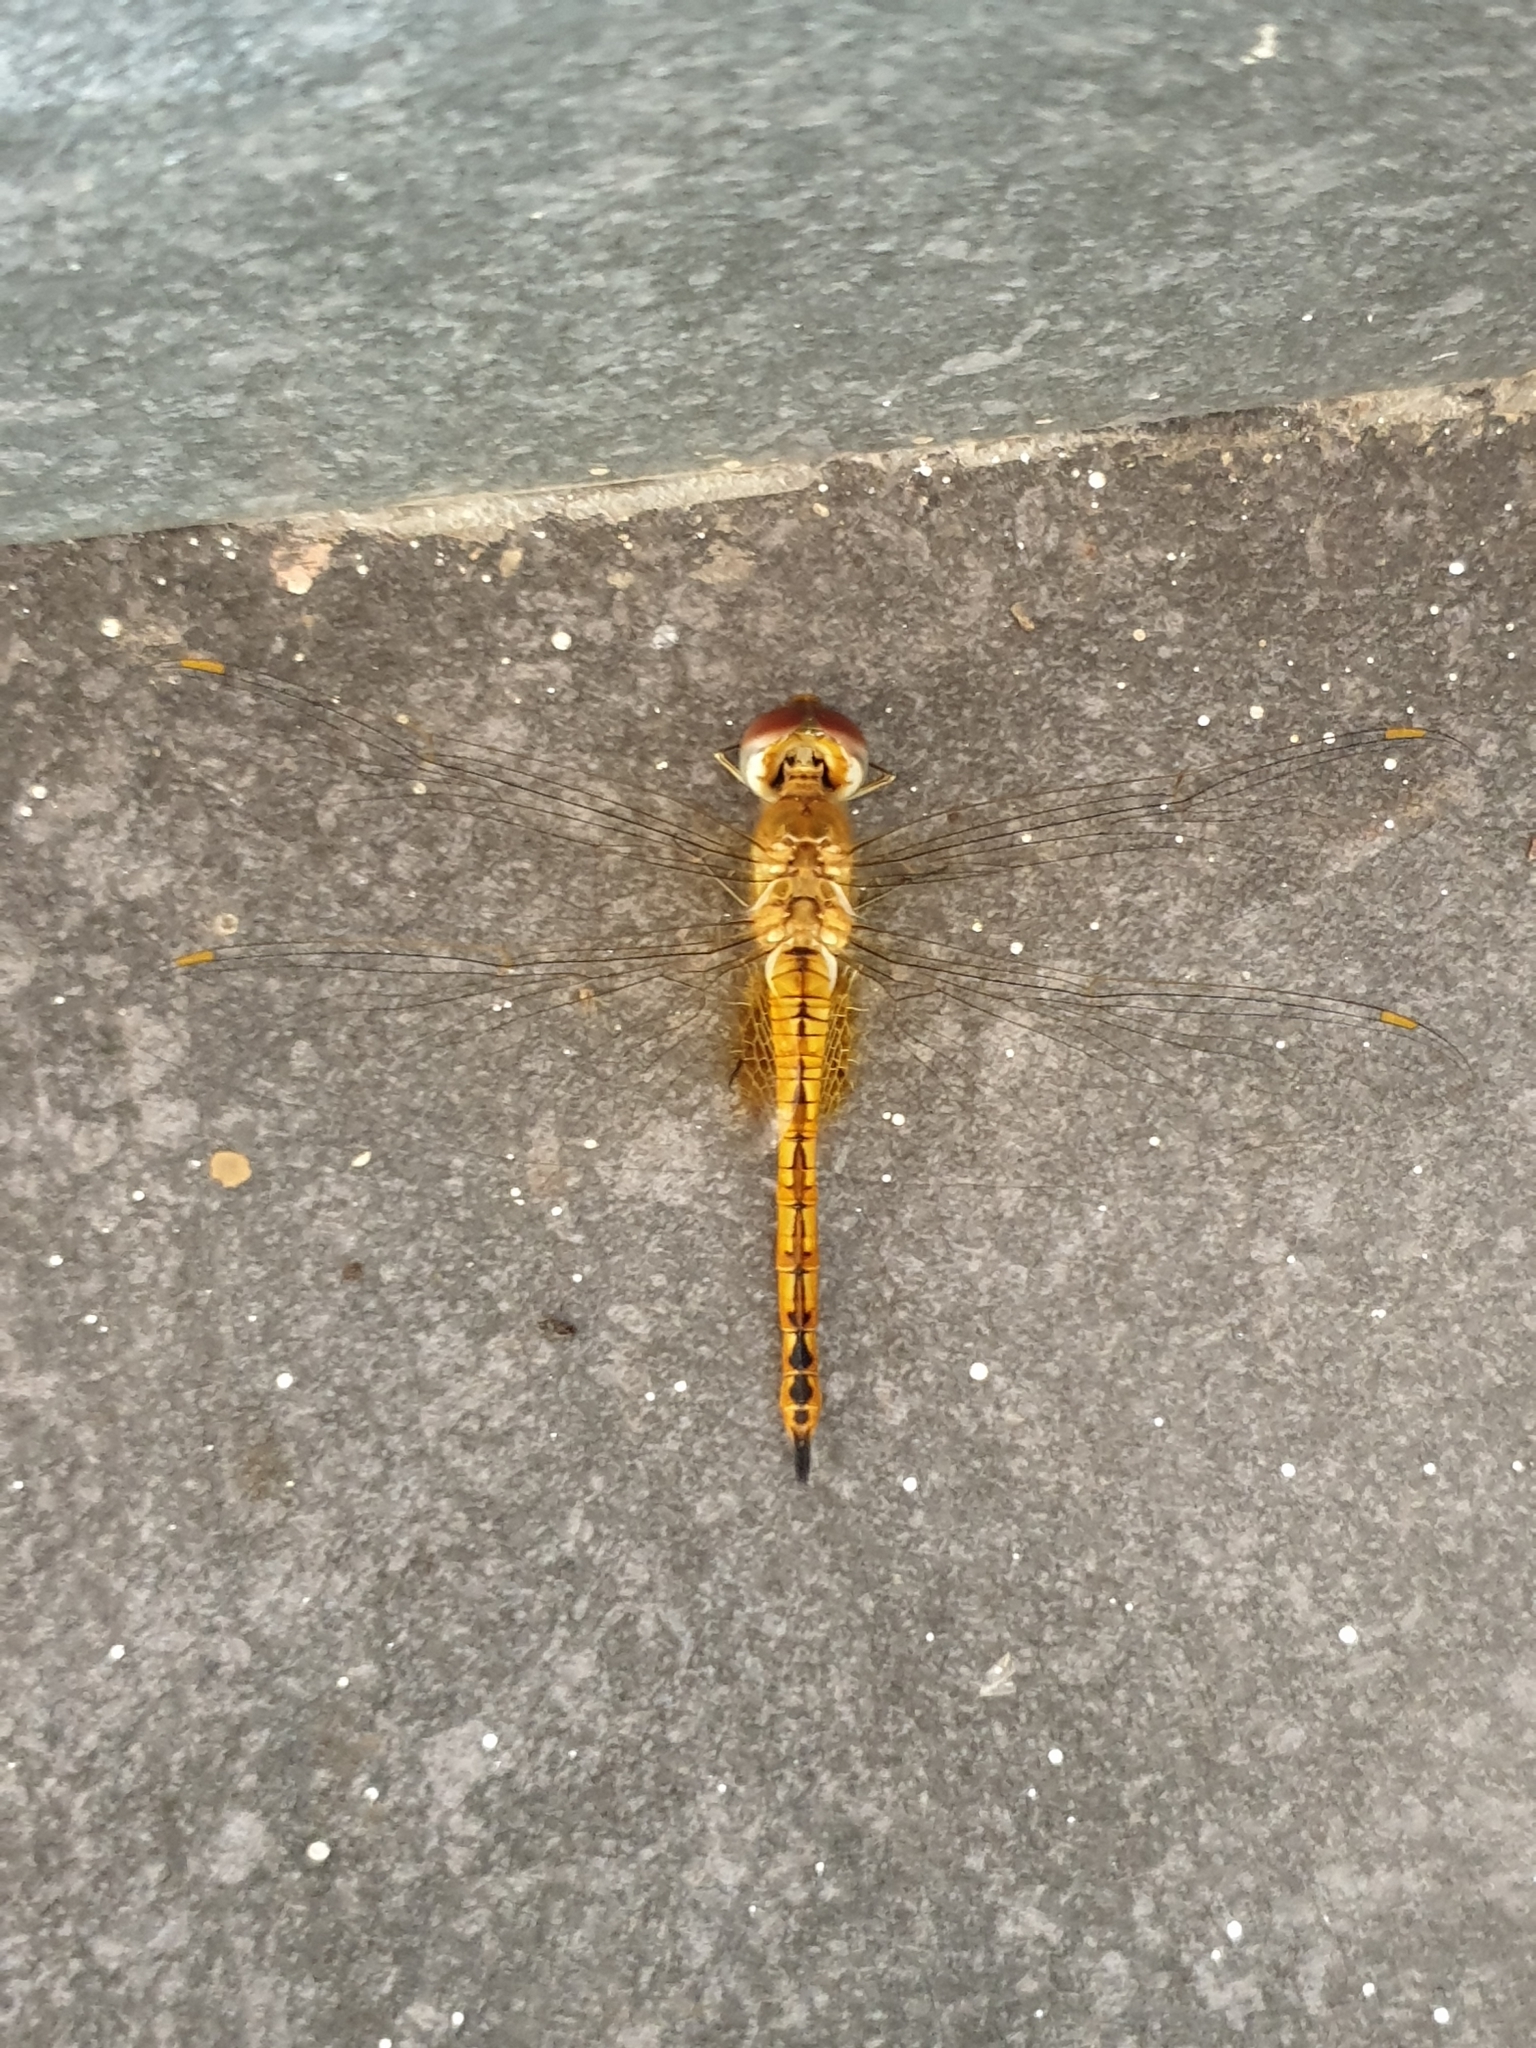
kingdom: Animalia
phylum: Arthropoda
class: Insecta
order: Odonata
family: Libellulidae
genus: Pantala
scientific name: Pantala flavescens
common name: Wandering glider
